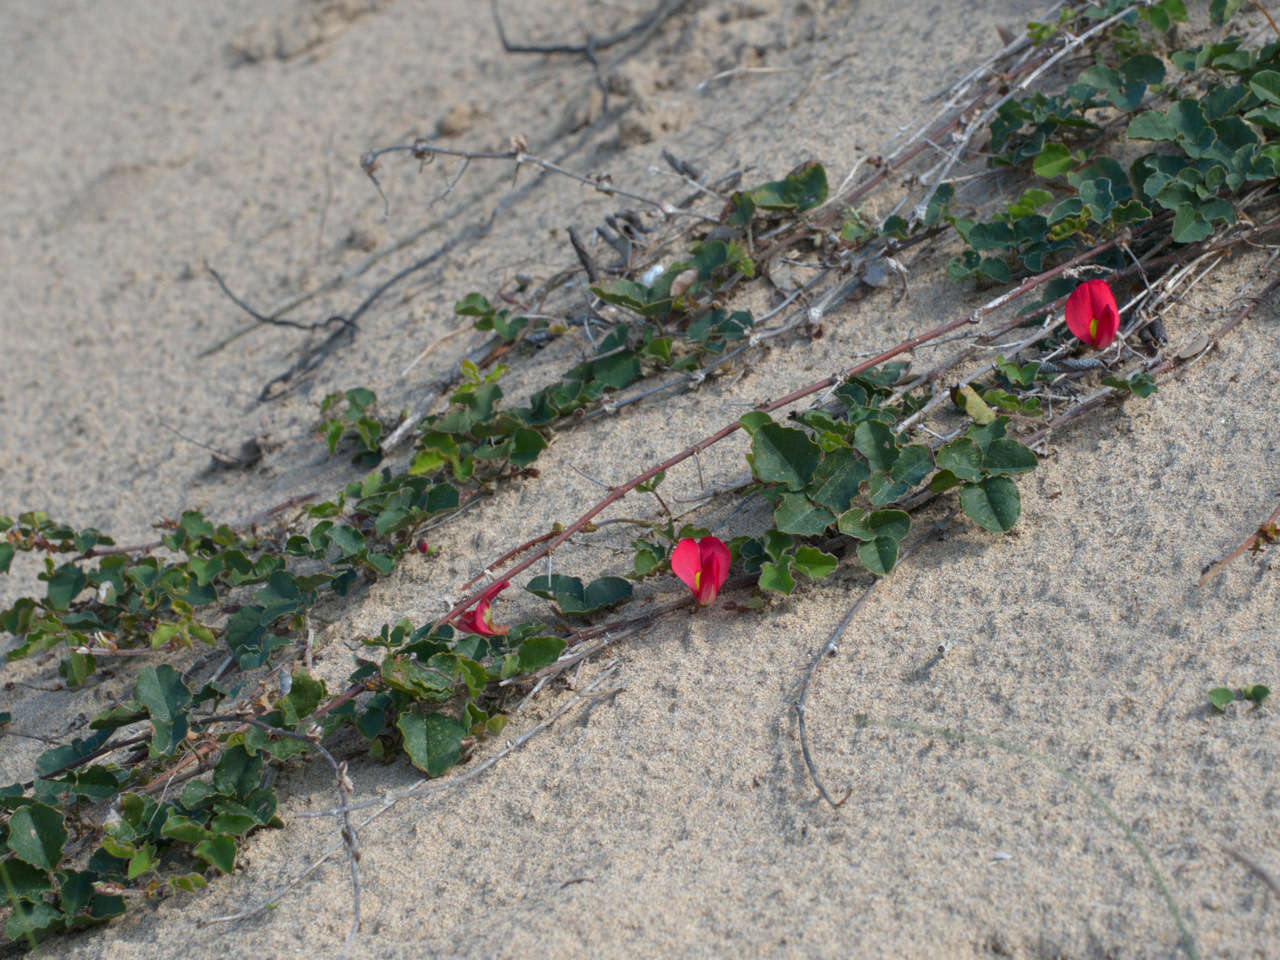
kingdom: Plantae
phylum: Tracheophyta
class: Magnoliopsida
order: Fabales
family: Fabaceae
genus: Kennedia
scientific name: Kennedia prostrata
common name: Running-postman
